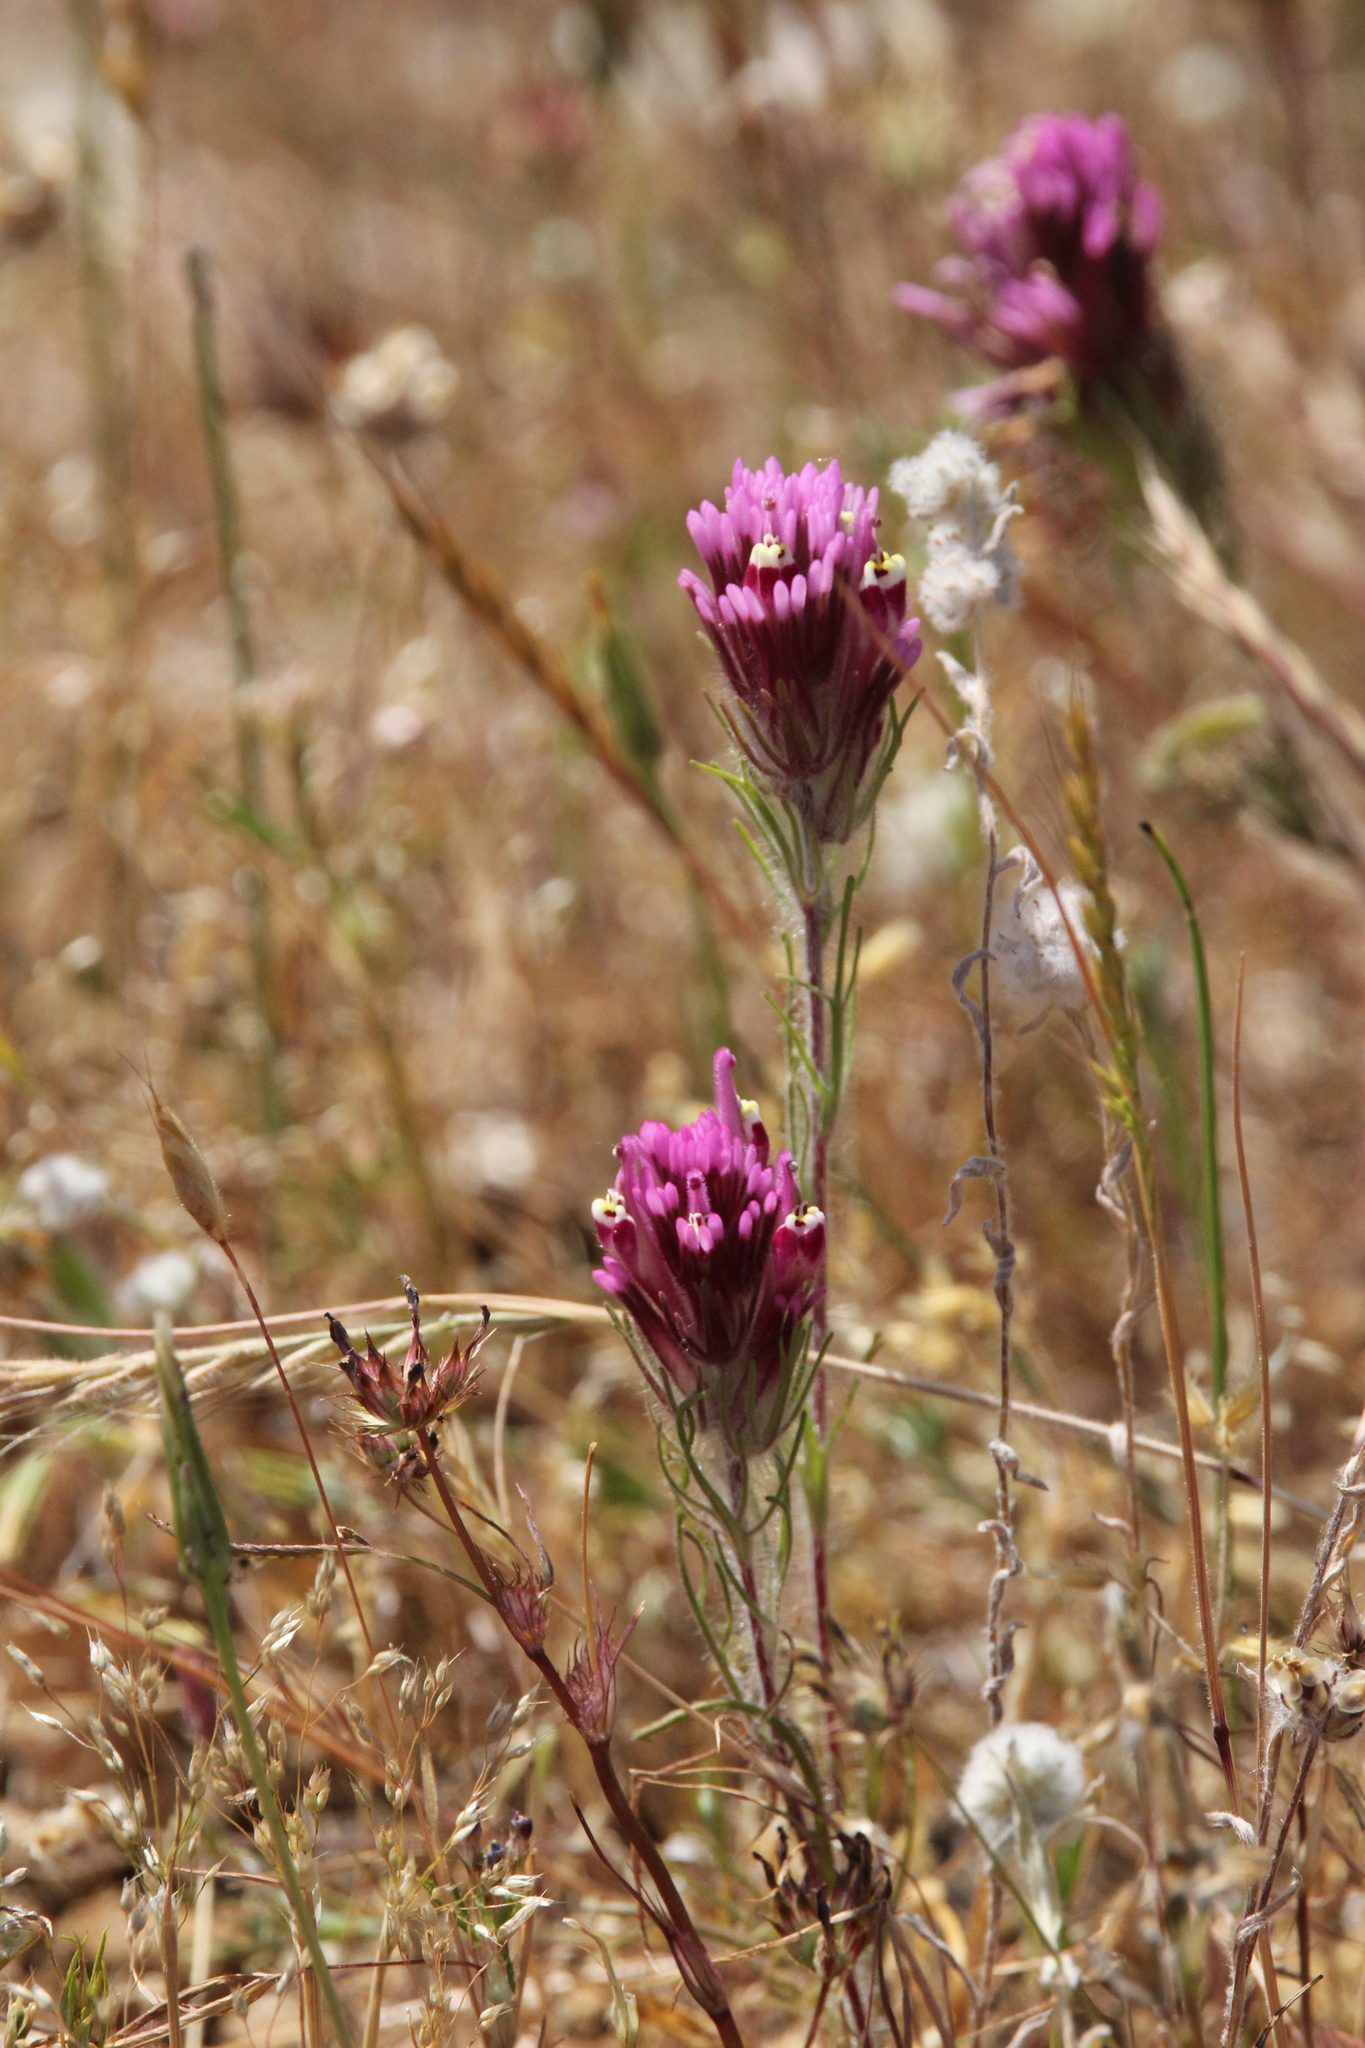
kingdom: Plantae
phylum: Tracheophyta
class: Magnoliopsida
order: Lamiales
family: Orobanchaceae
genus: Castilleja
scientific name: Castilleja exserta
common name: Purple owl-clover
